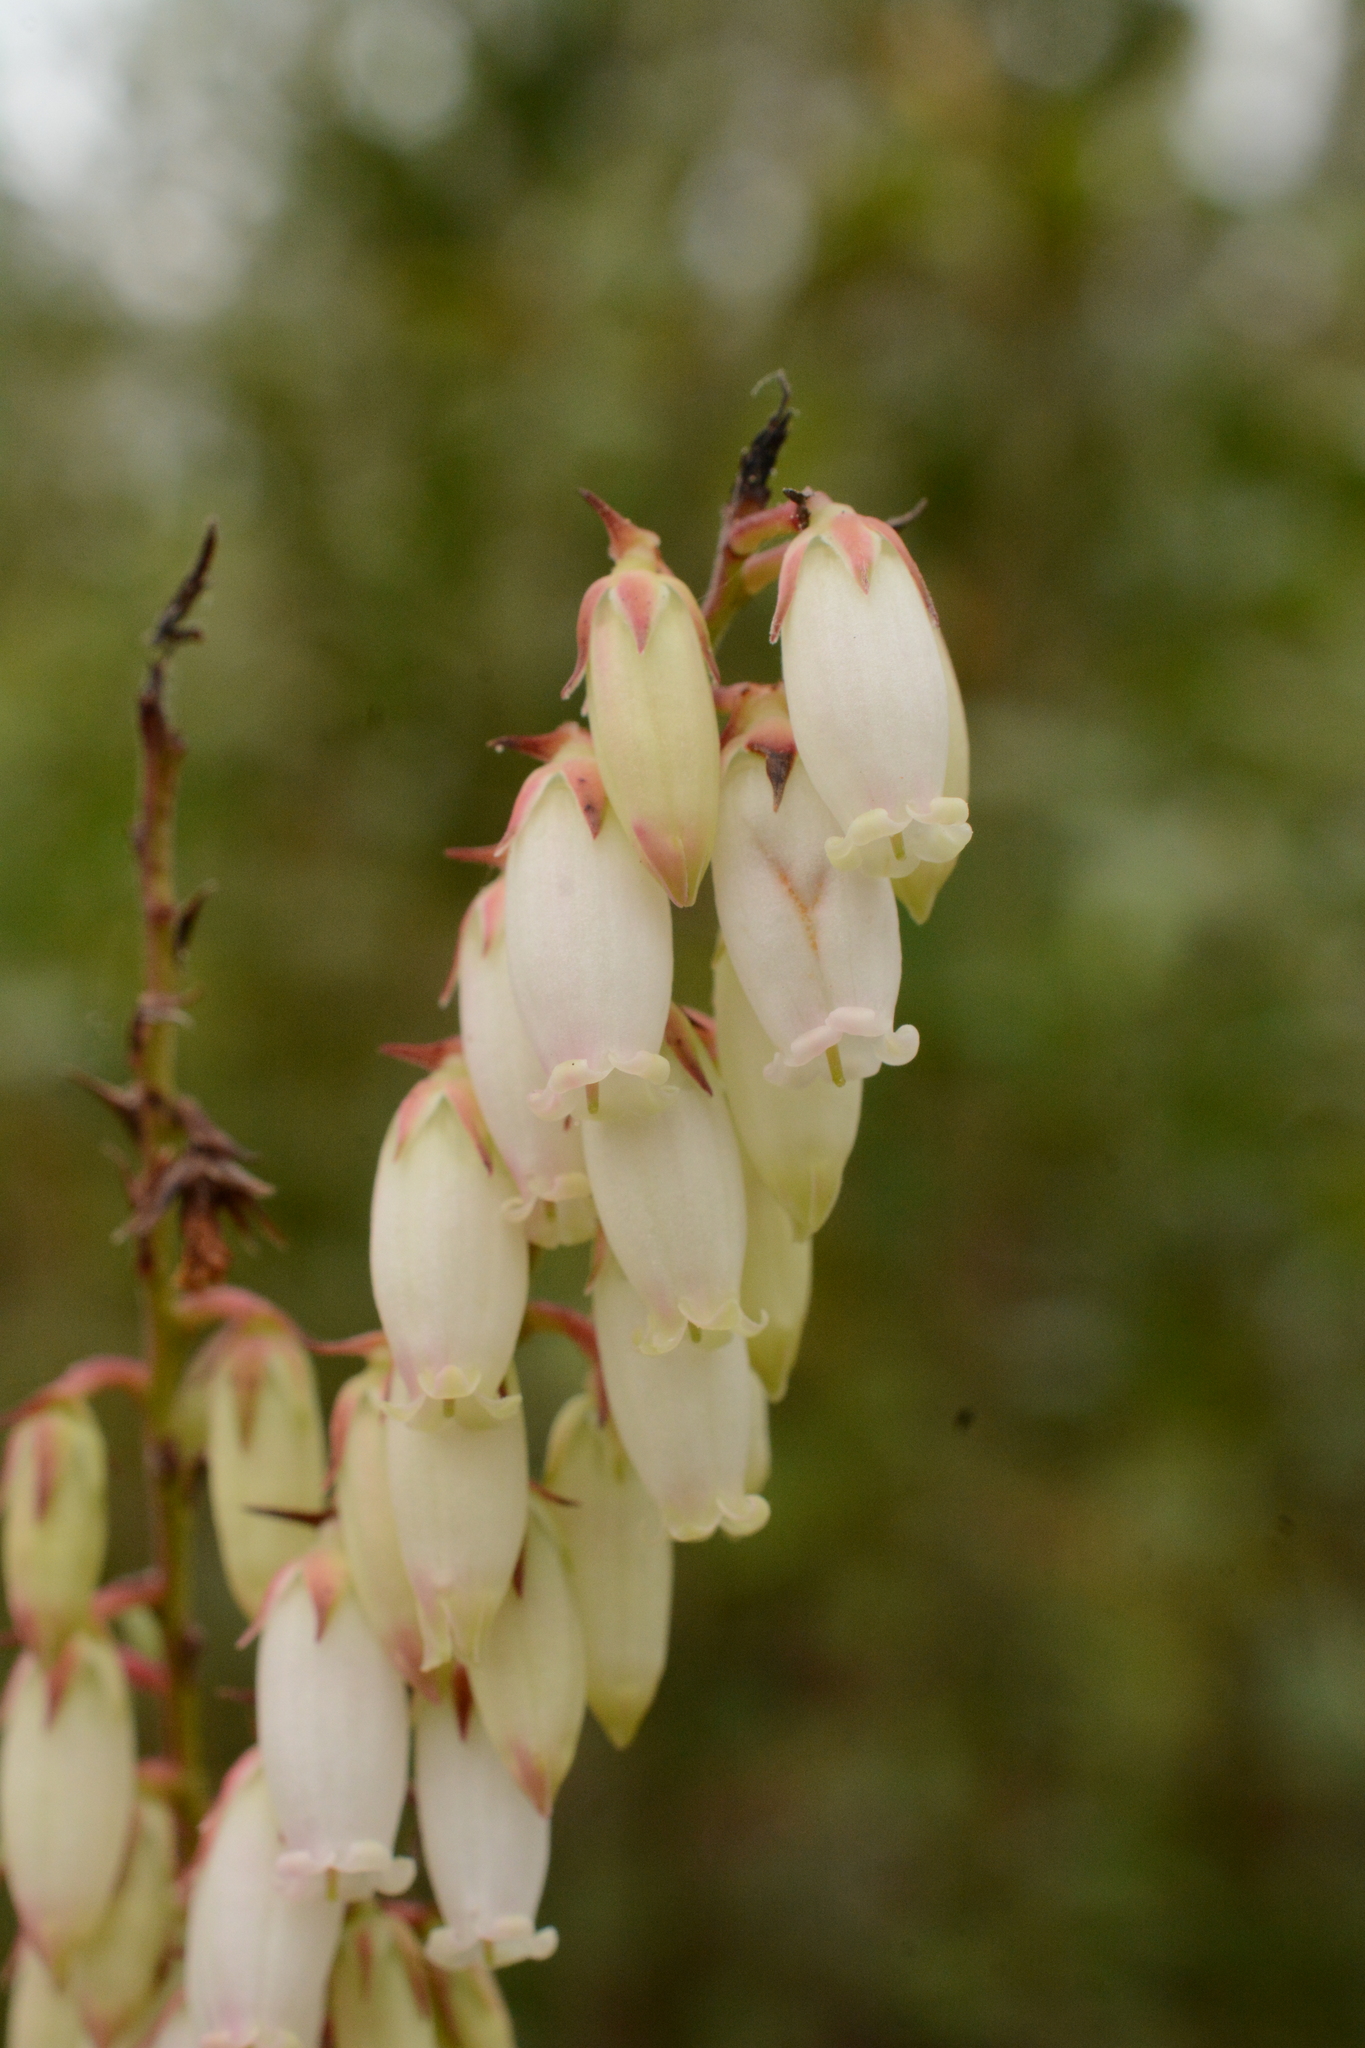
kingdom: Plantae
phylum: Tracheophyta
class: Magnoliopsida
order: Ericales
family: Ericaceae
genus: Eubotrys
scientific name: Eubotrys racemosa
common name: Fetterbush
